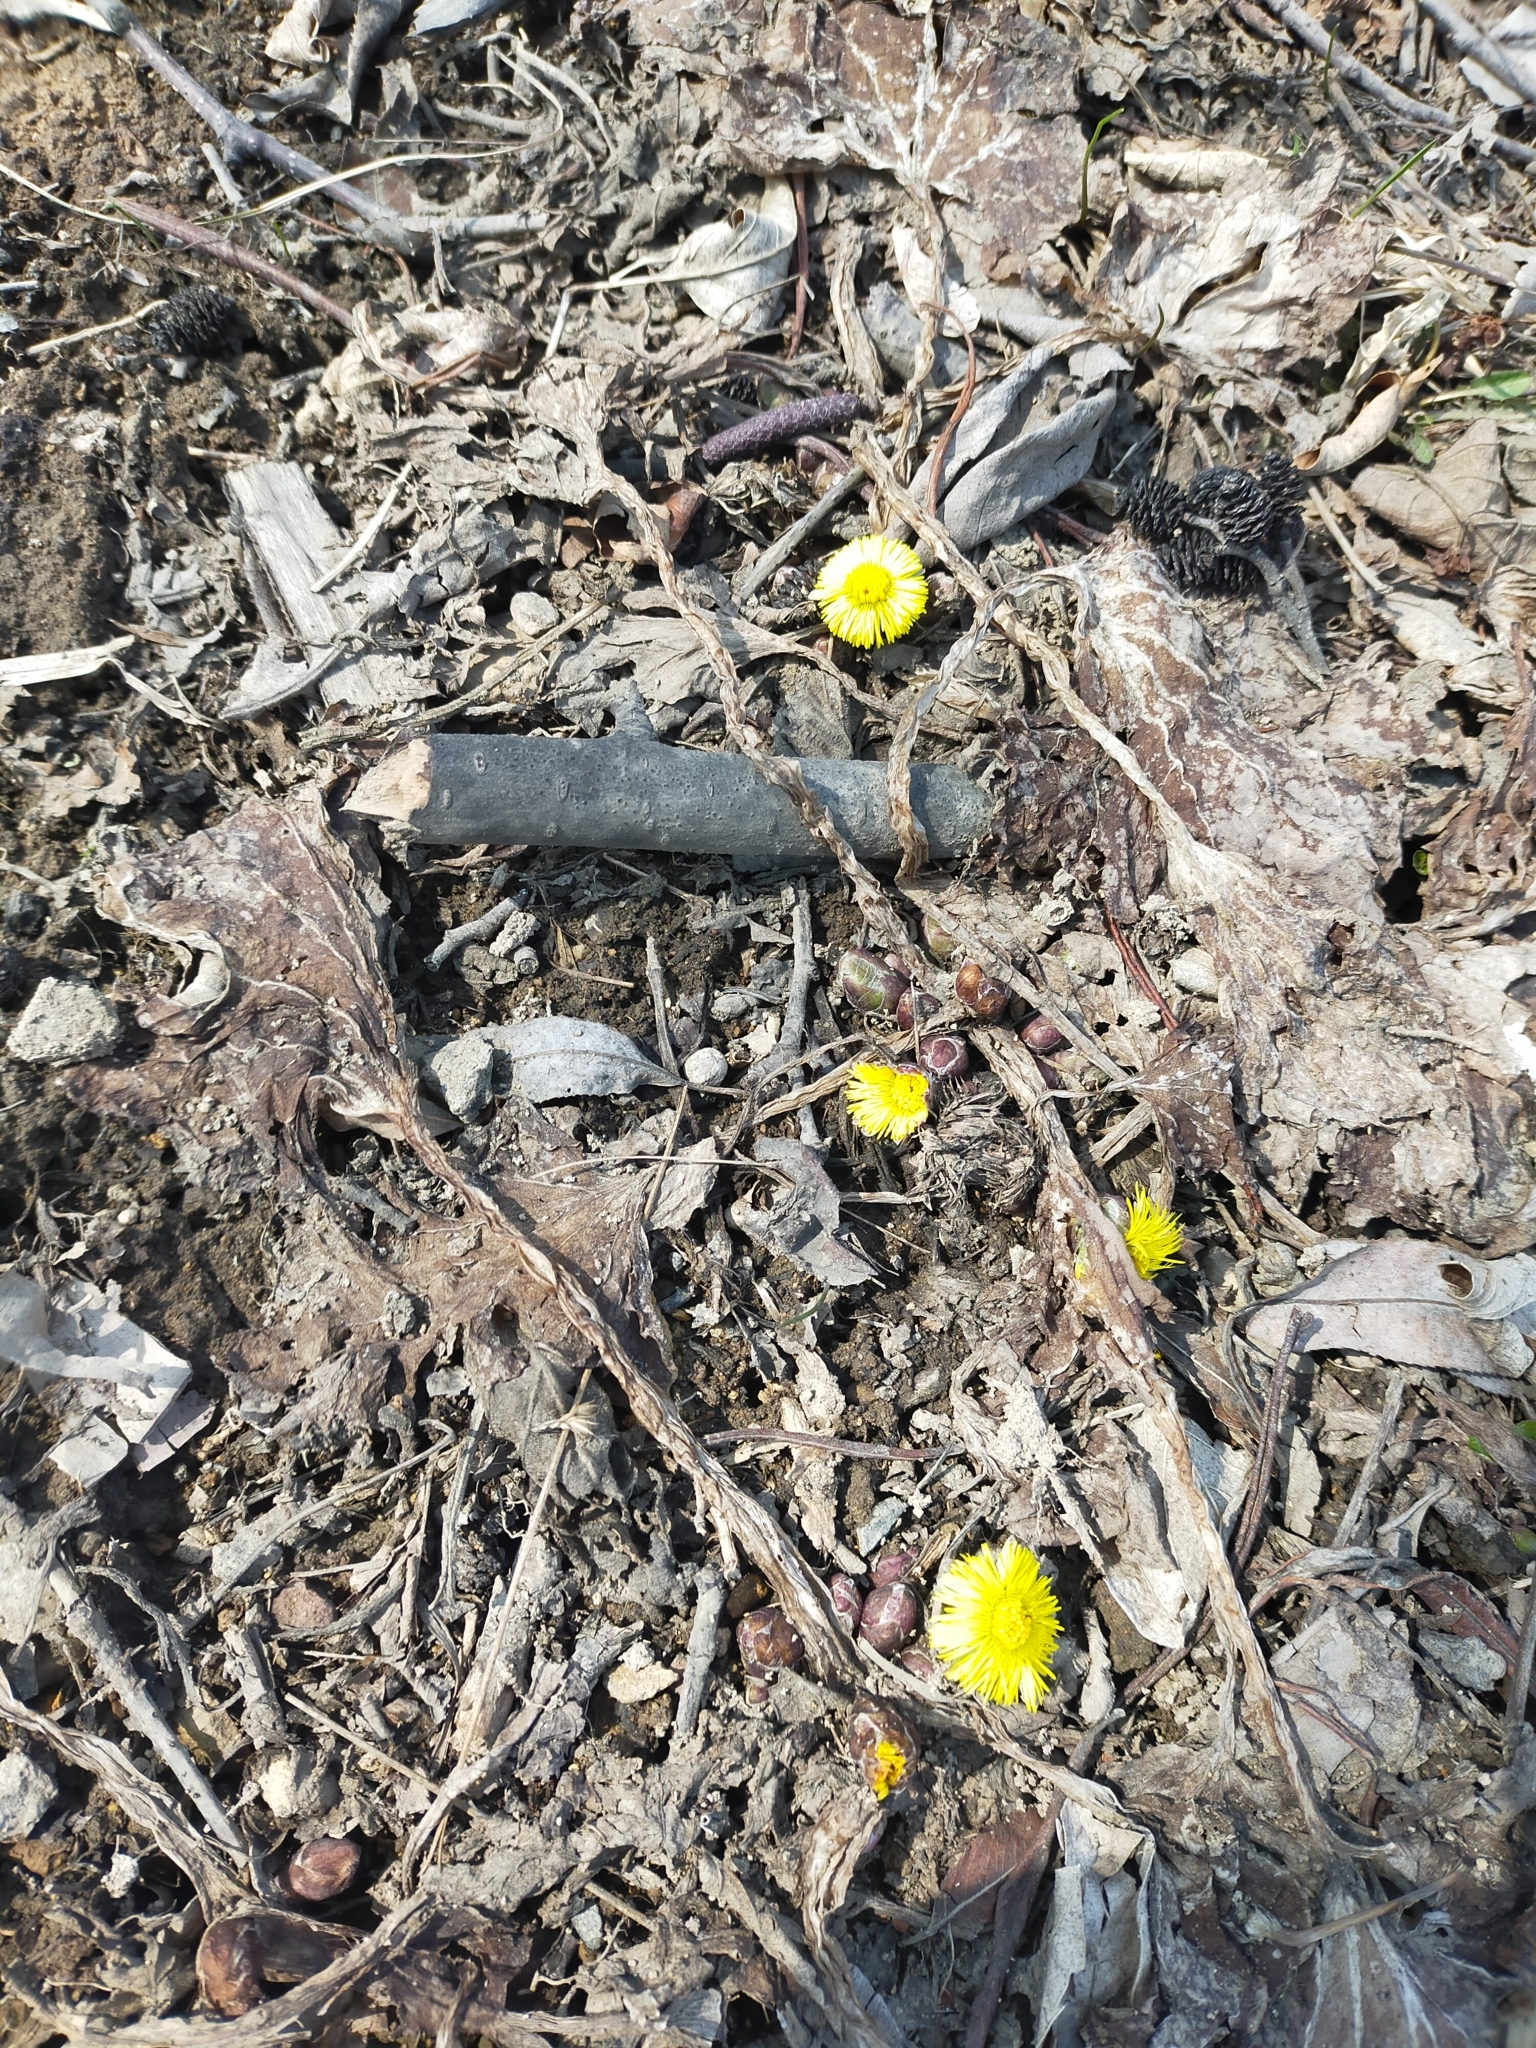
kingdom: Plantae
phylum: Tracheophyta
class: Magnoliopsida
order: Asterales
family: Asteraceae
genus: Tussilago
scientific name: Tussilago farfara
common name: Coltsfoot
